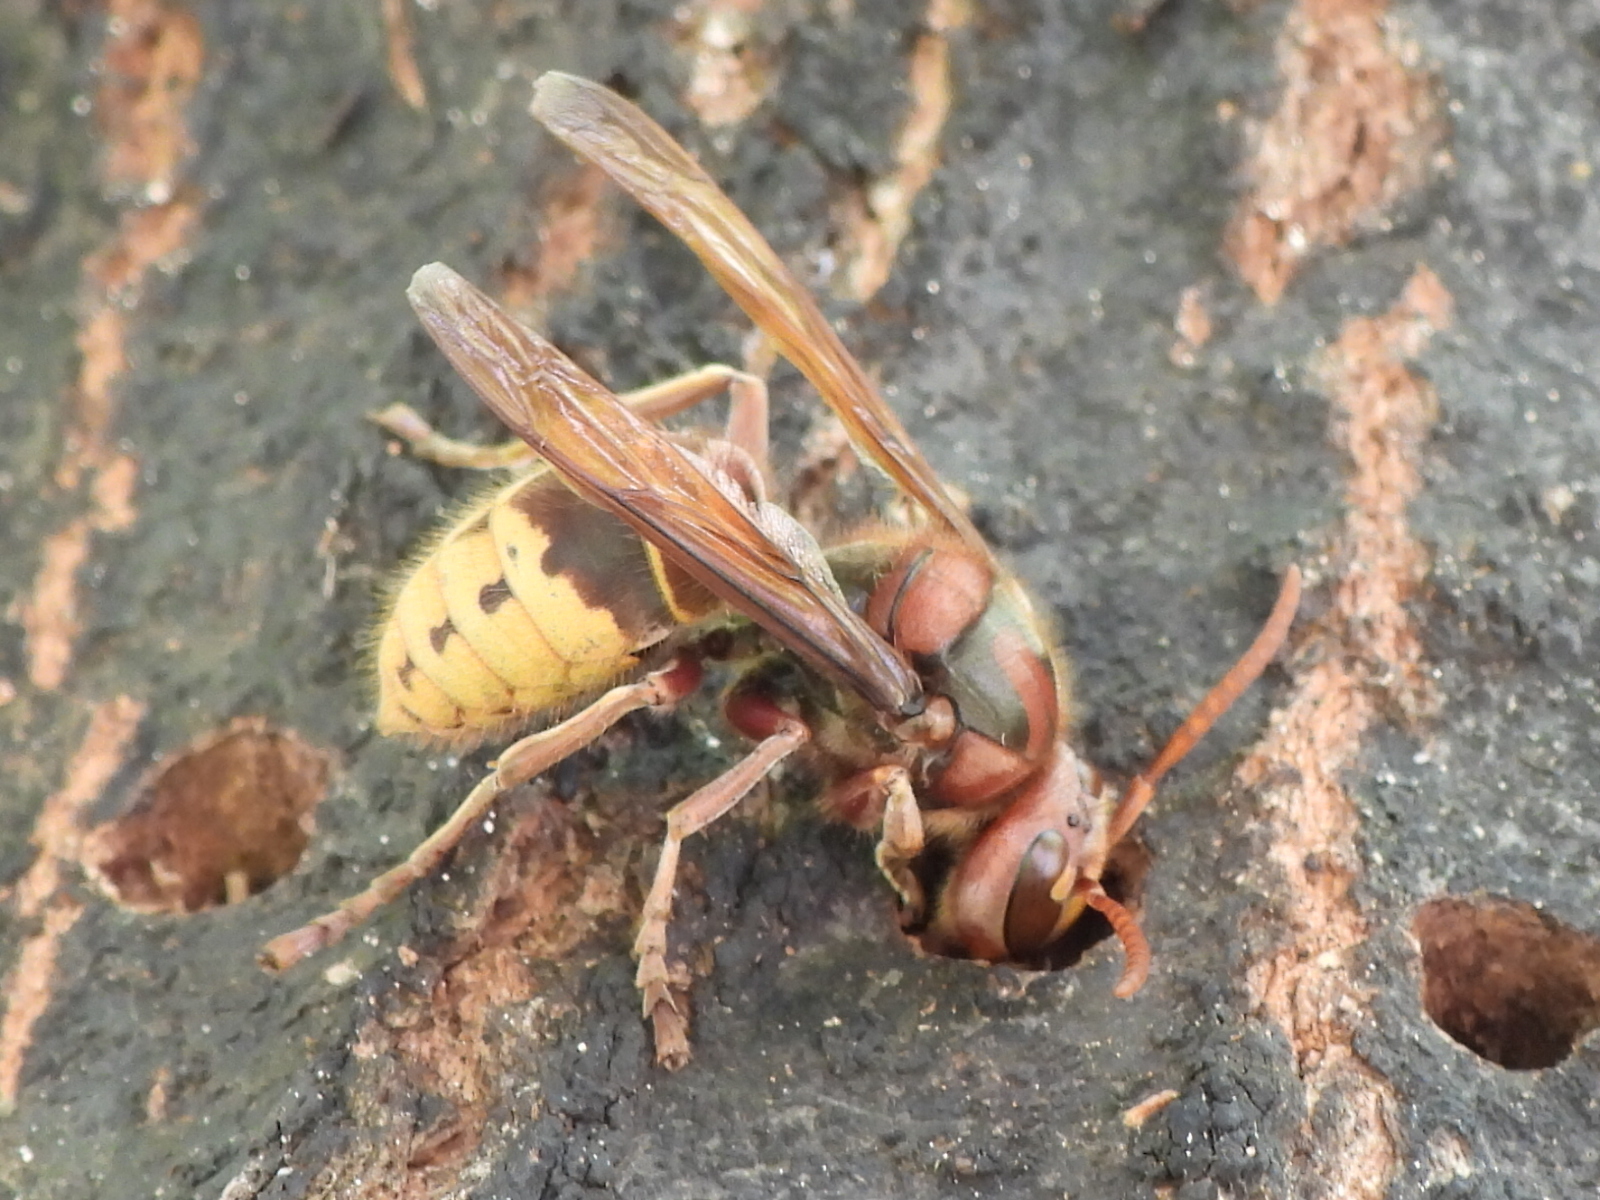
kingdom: Animalia
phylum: Arthropoda
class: Insecta
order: Hymenoptera
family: Vespidae
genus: Vespa
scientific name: Vespa crabro
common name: Hornet
